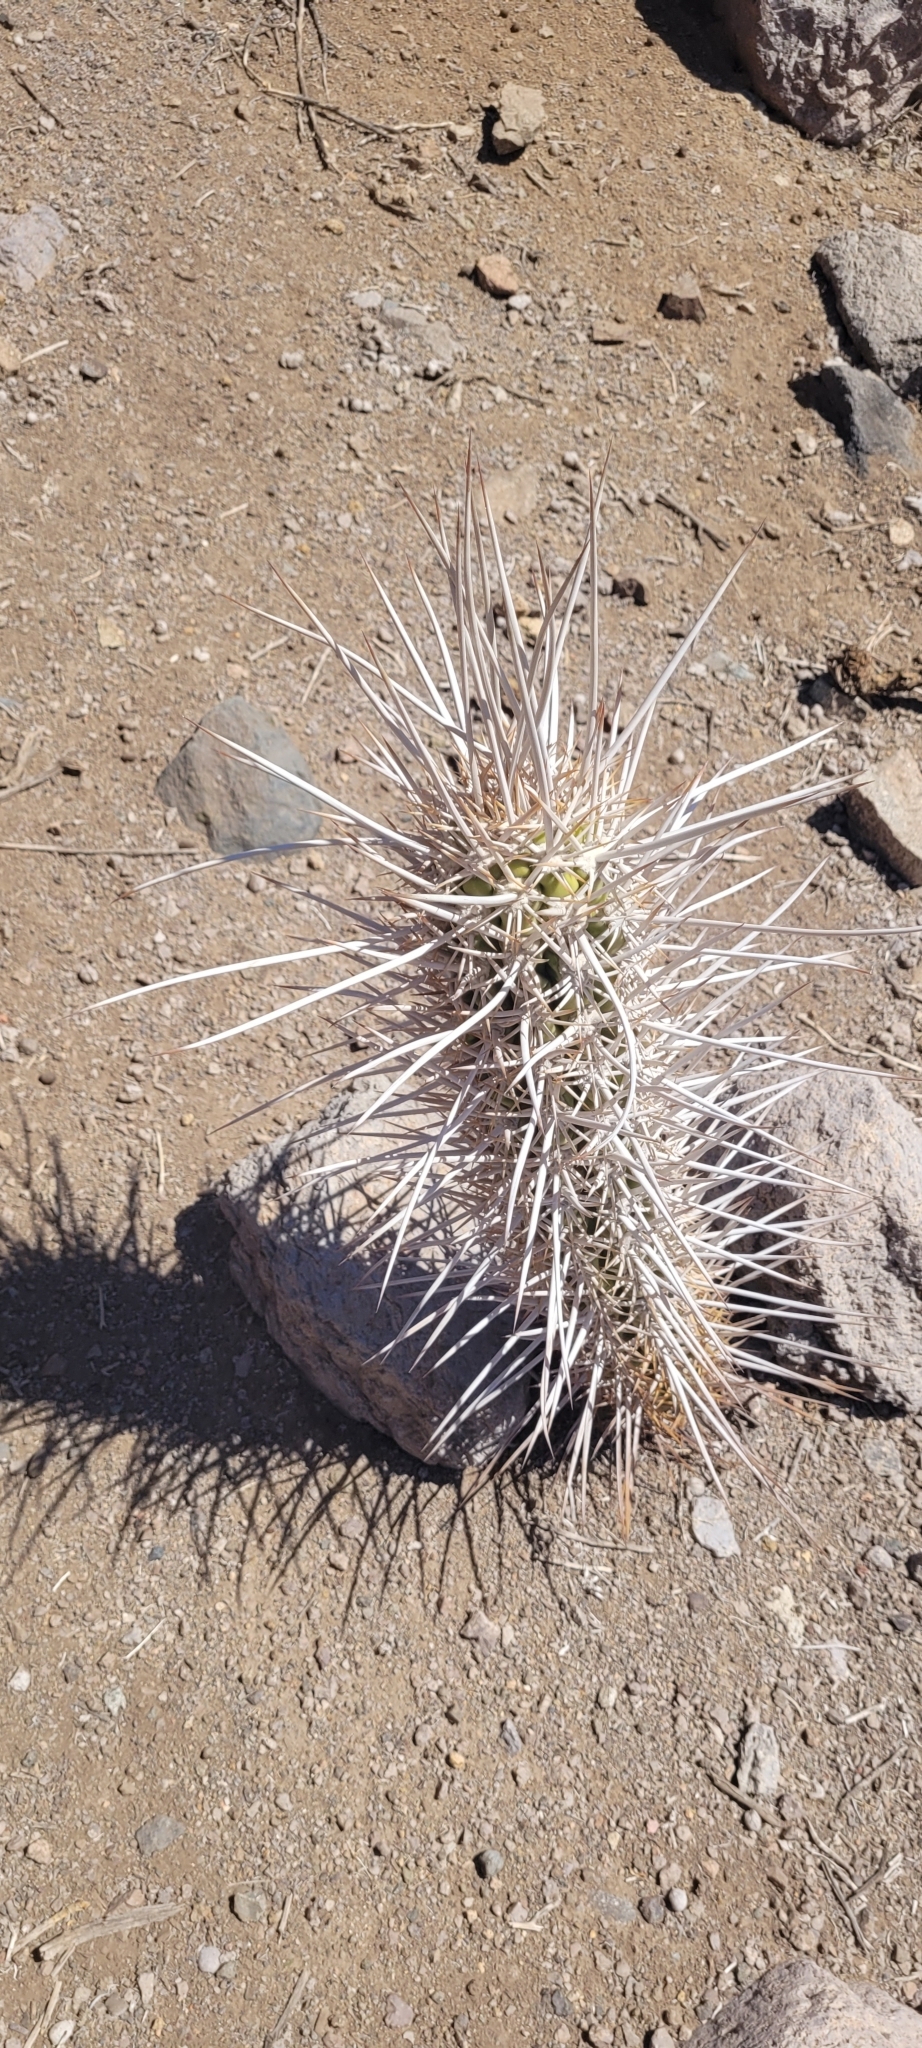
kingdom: Plantae
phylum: Tracheophyta
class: Magnoliopsida
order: Caryophyllales
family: Cactaceae
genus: Leucostele
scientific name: Leucostele deserticola
